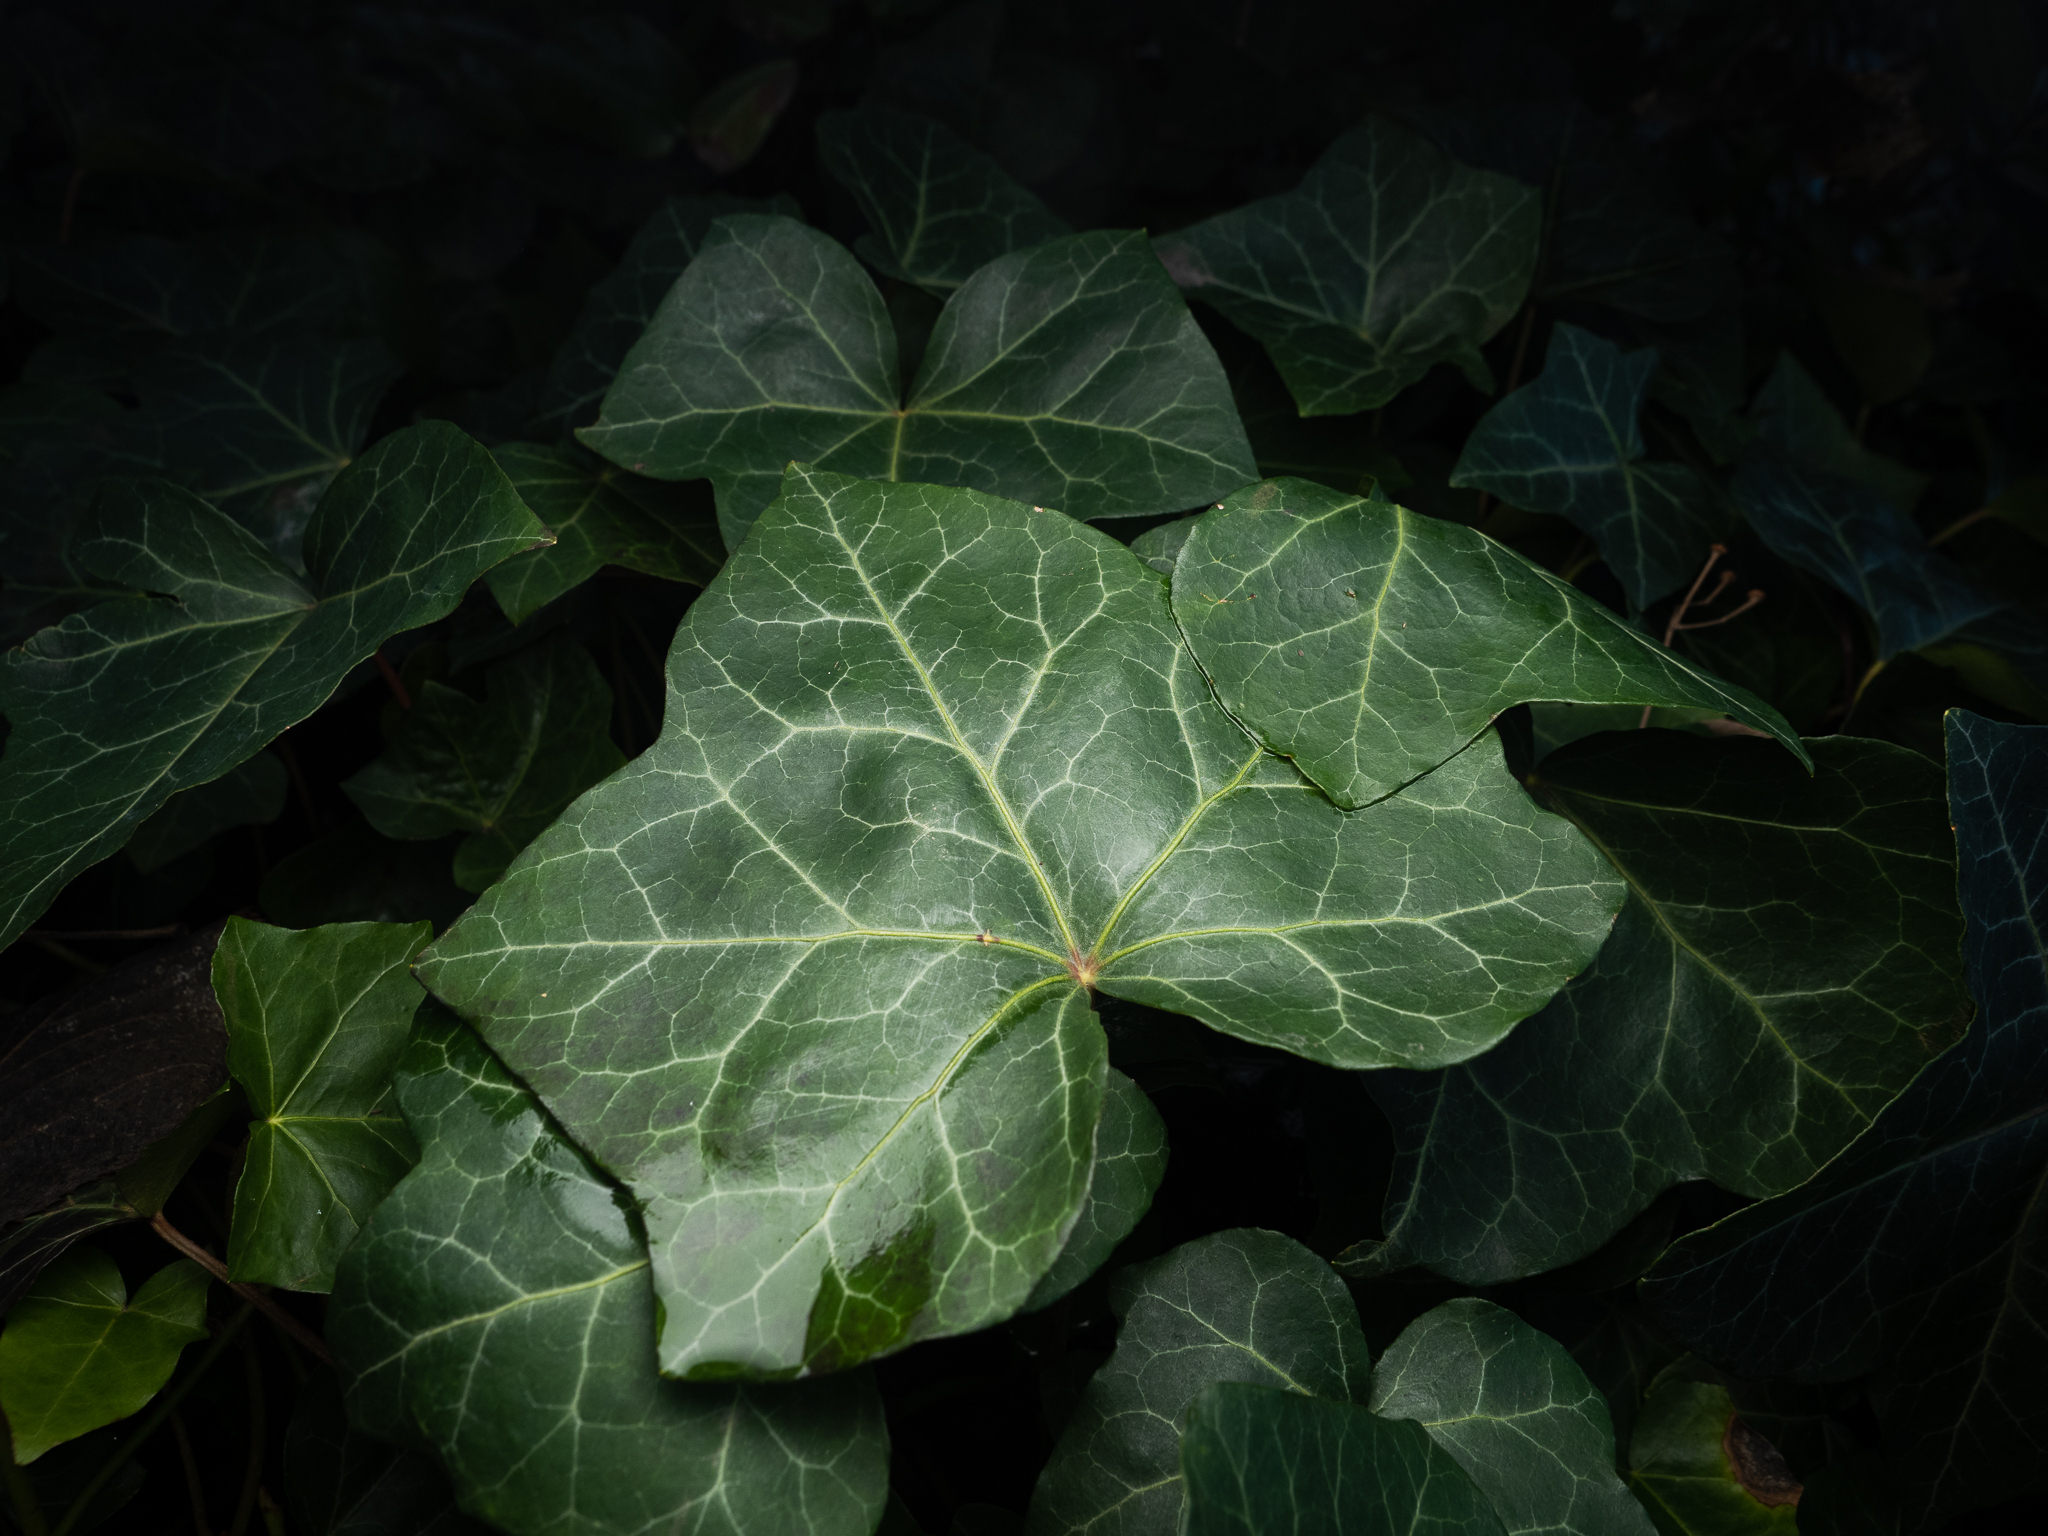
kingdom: Plantae
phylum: Tracheophyta
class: Magnoliopsida
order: Apiales
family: Araliaceae
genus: Hedera
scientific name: Hedera helix
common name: Ivy
